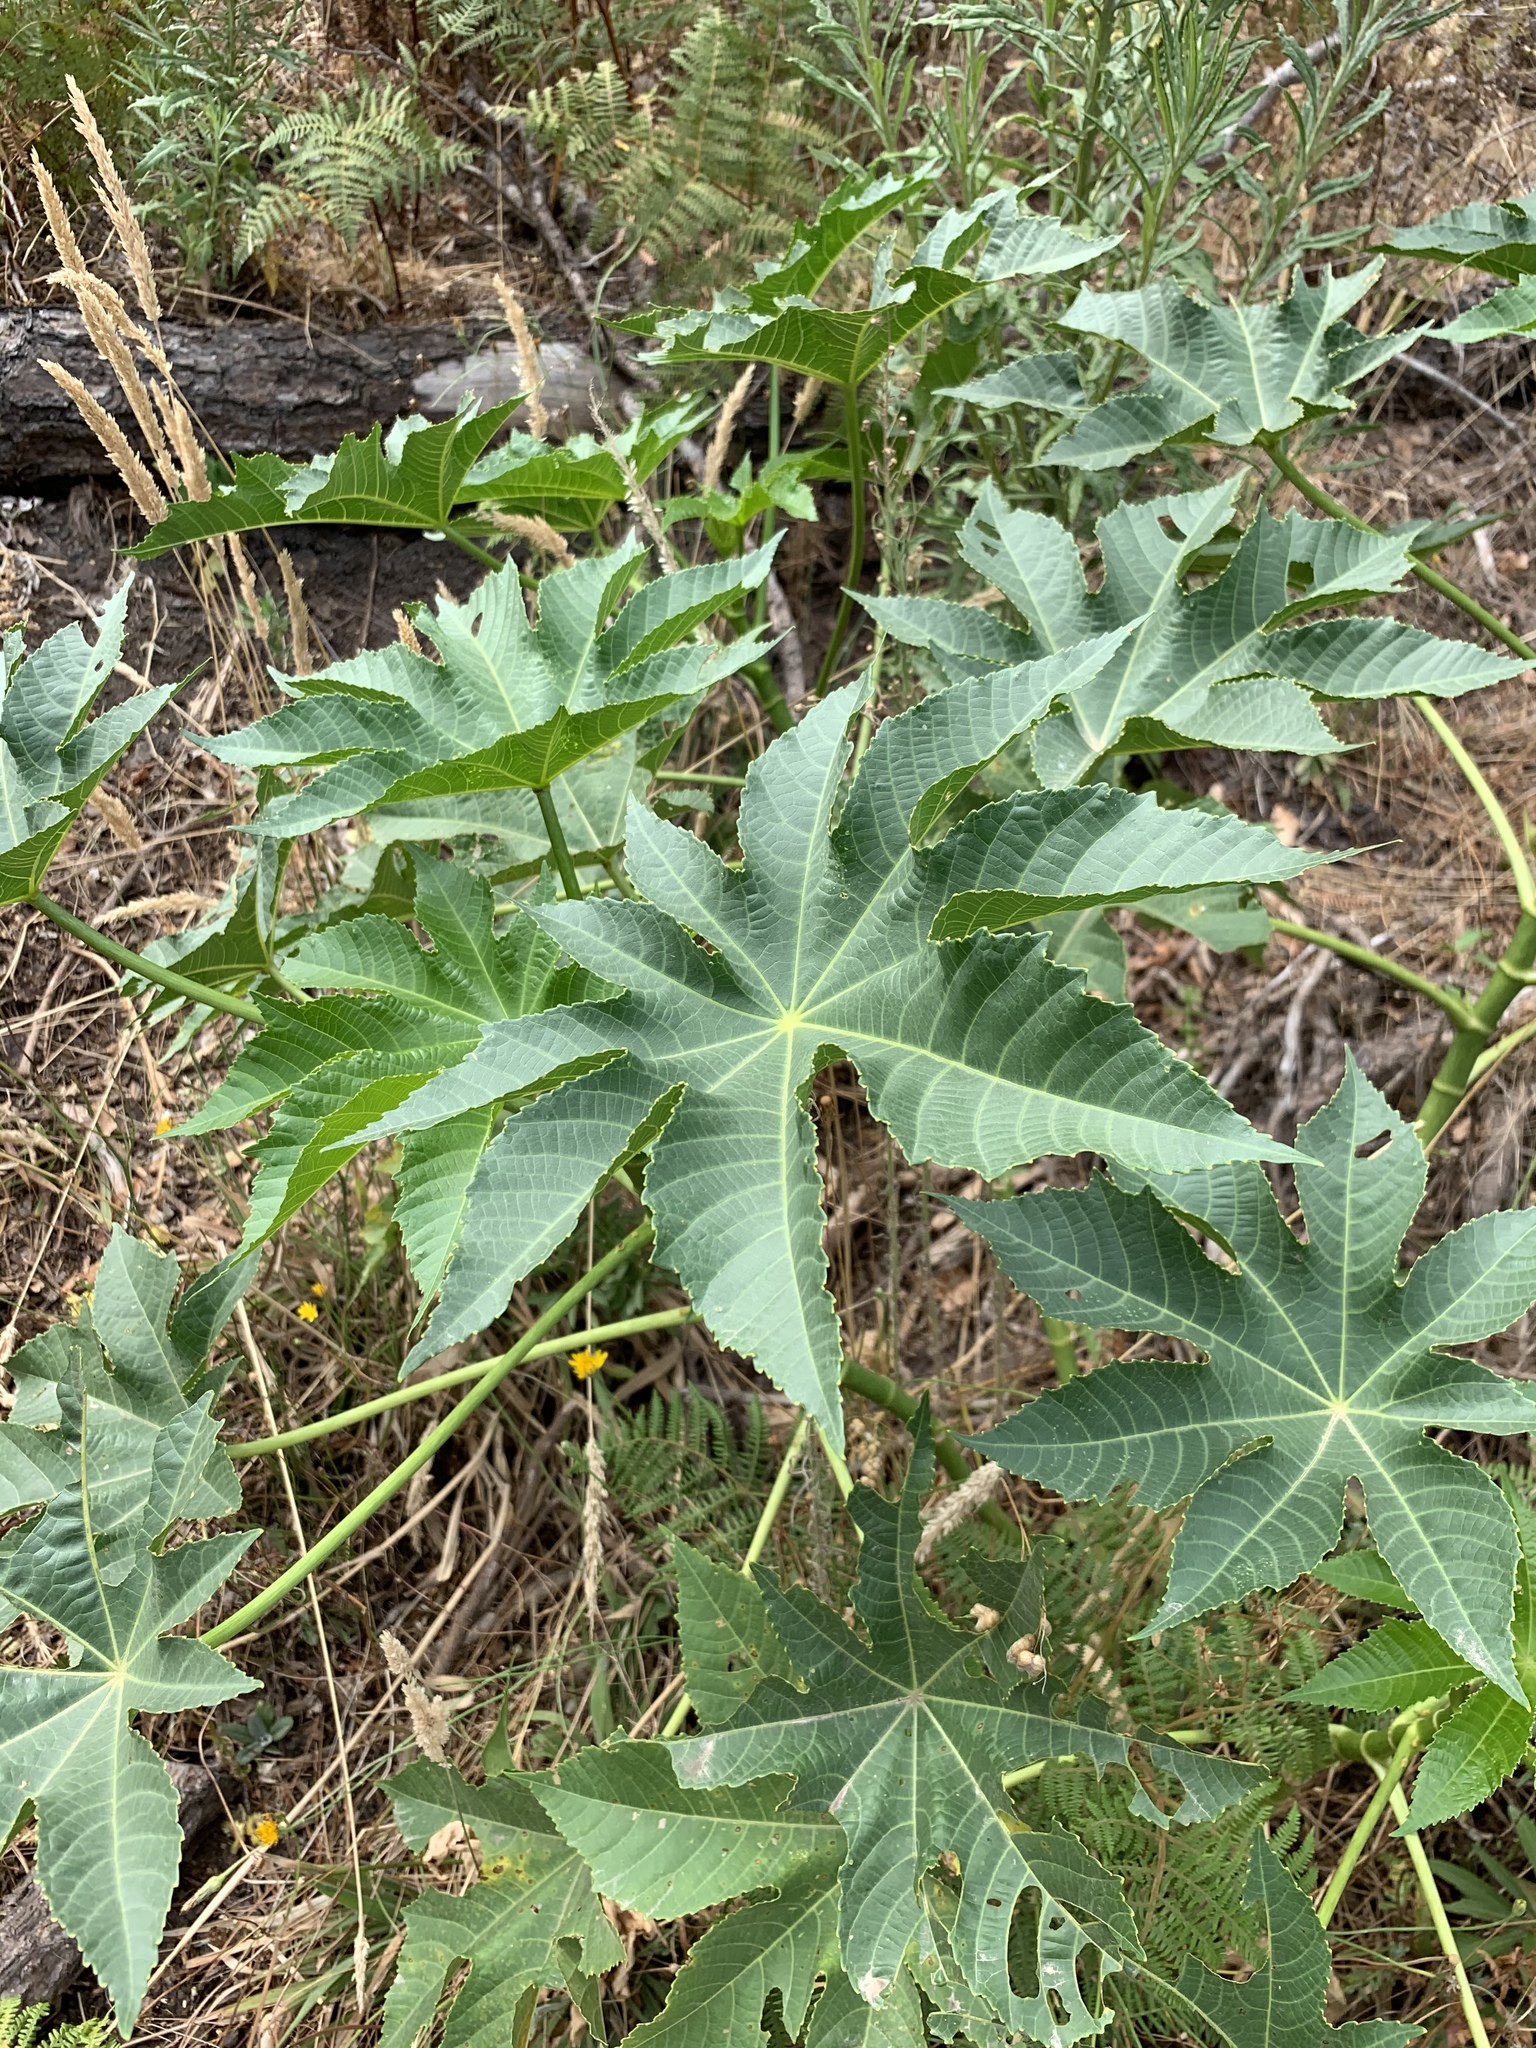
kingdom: Plantae
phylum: Tracheophyta
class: Magnoliopsida
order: Malpighiales
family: Euphorbiaceae
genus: Ricinus
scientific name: Ricinus communis
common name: Castor-oil-plant
